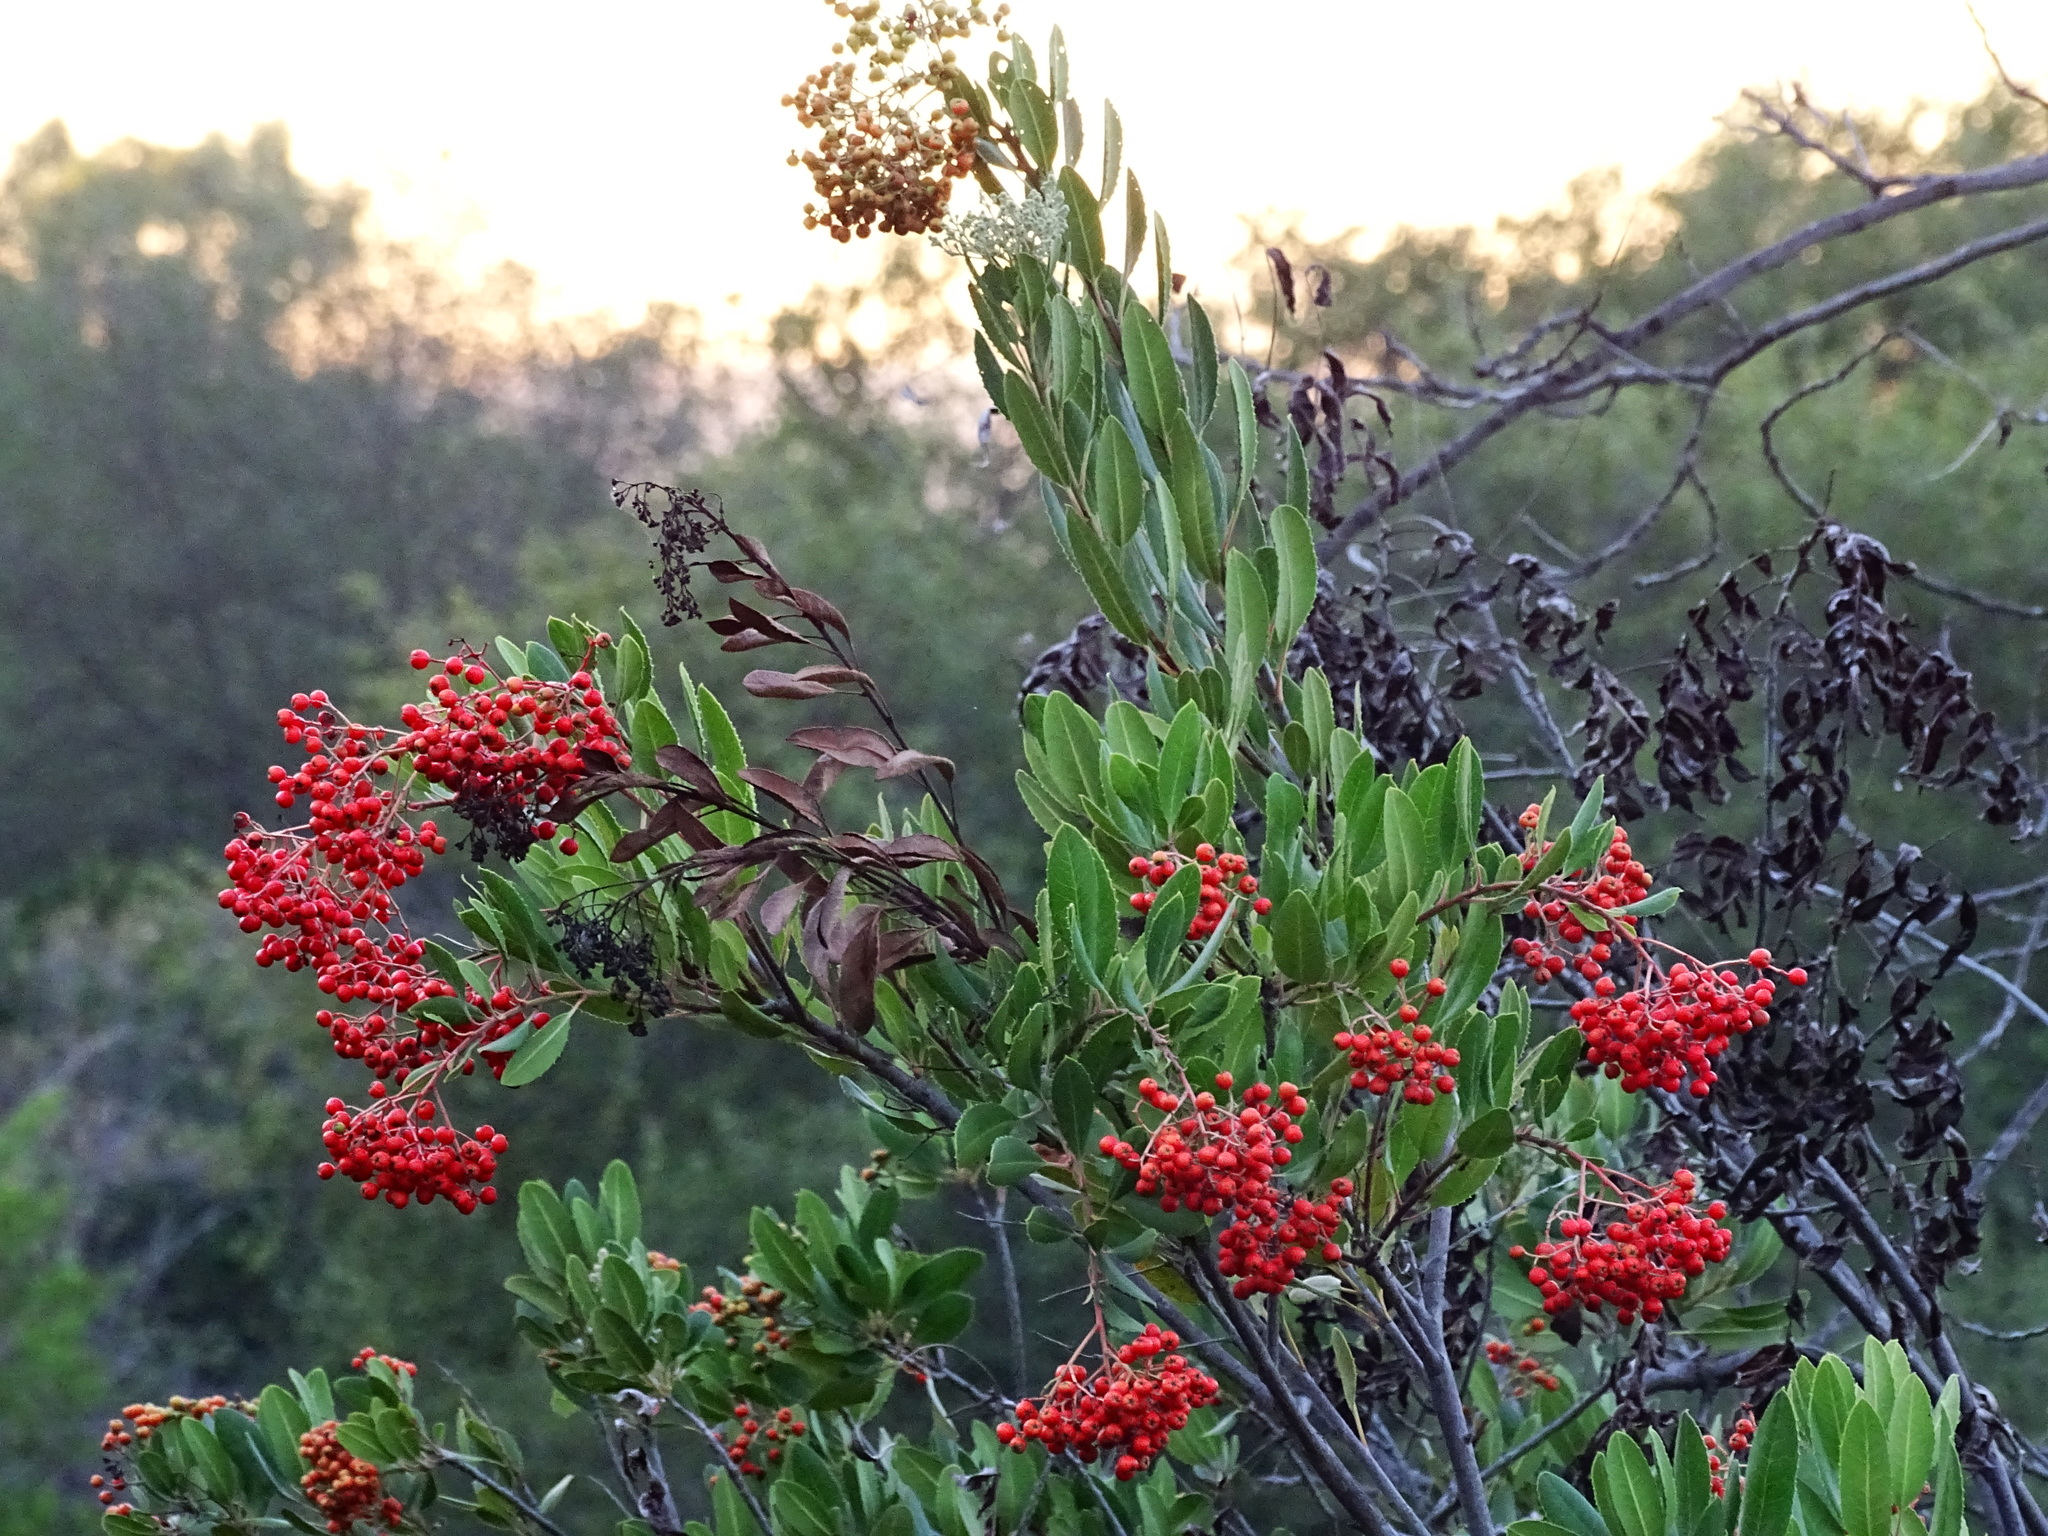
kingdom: Plantae
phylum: Tracheophyta
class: Magnoliopsida
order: Rosales
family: Rosaceae
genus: Heteromeles
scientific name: Heteromeles arbutifolia
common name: California-holly
